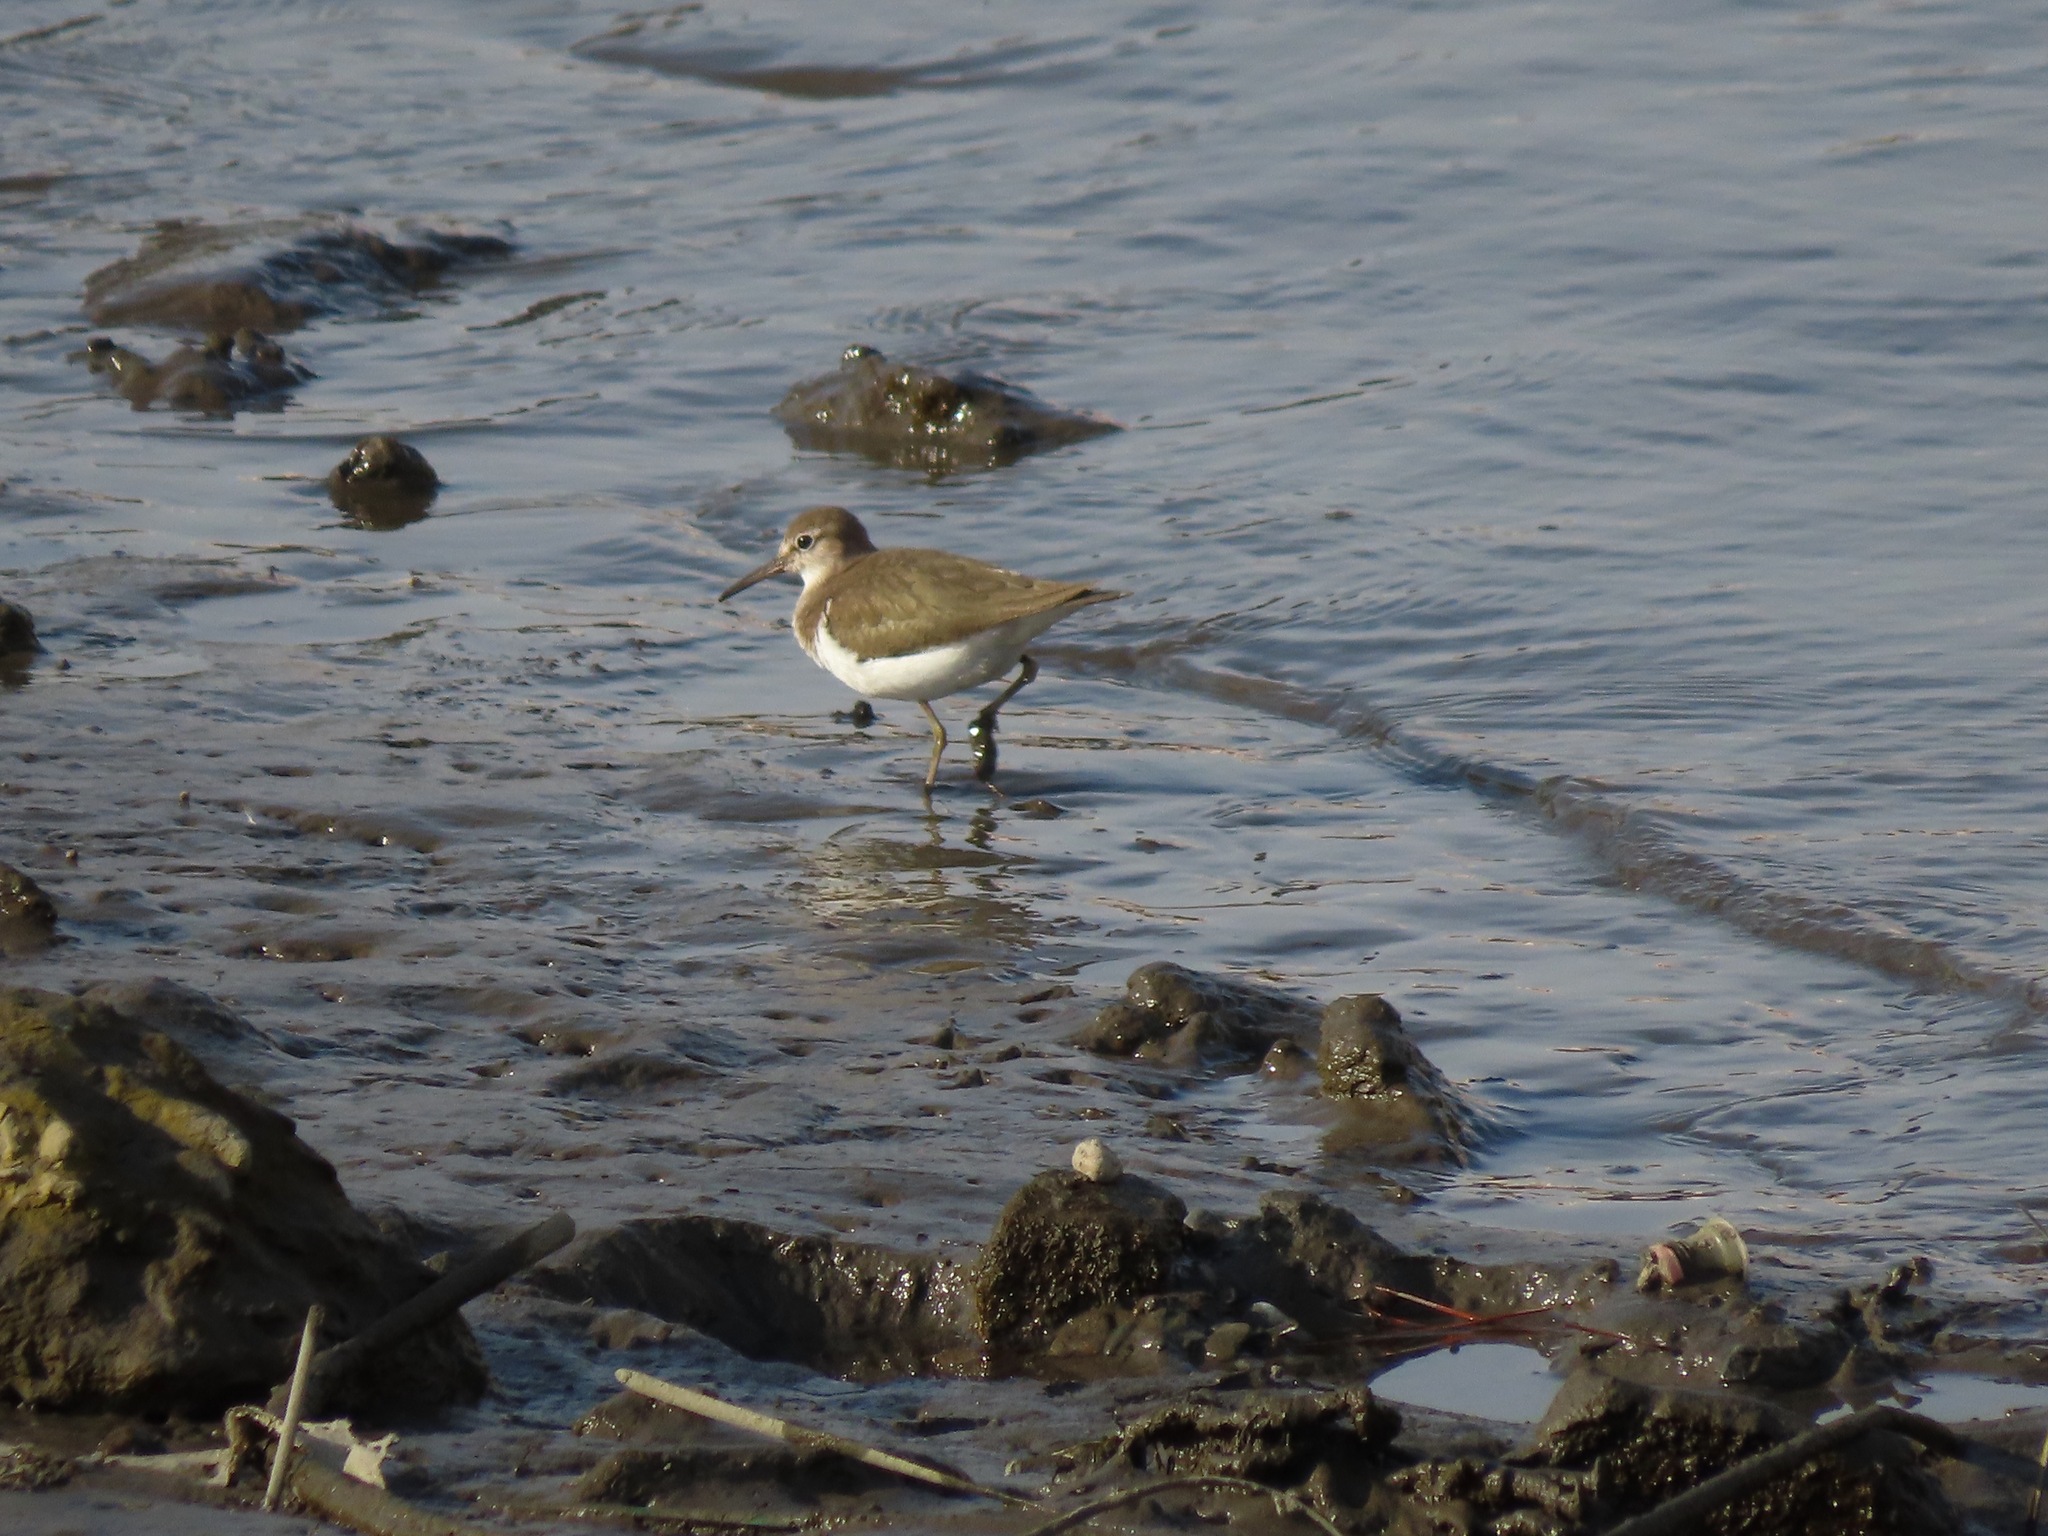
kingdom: Animalia
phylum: Chordata
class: Aves
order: Charadriiformes
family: Scolopacidae
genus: Actitis
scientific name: Actitis hypoleucos
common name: Common sandpiper
